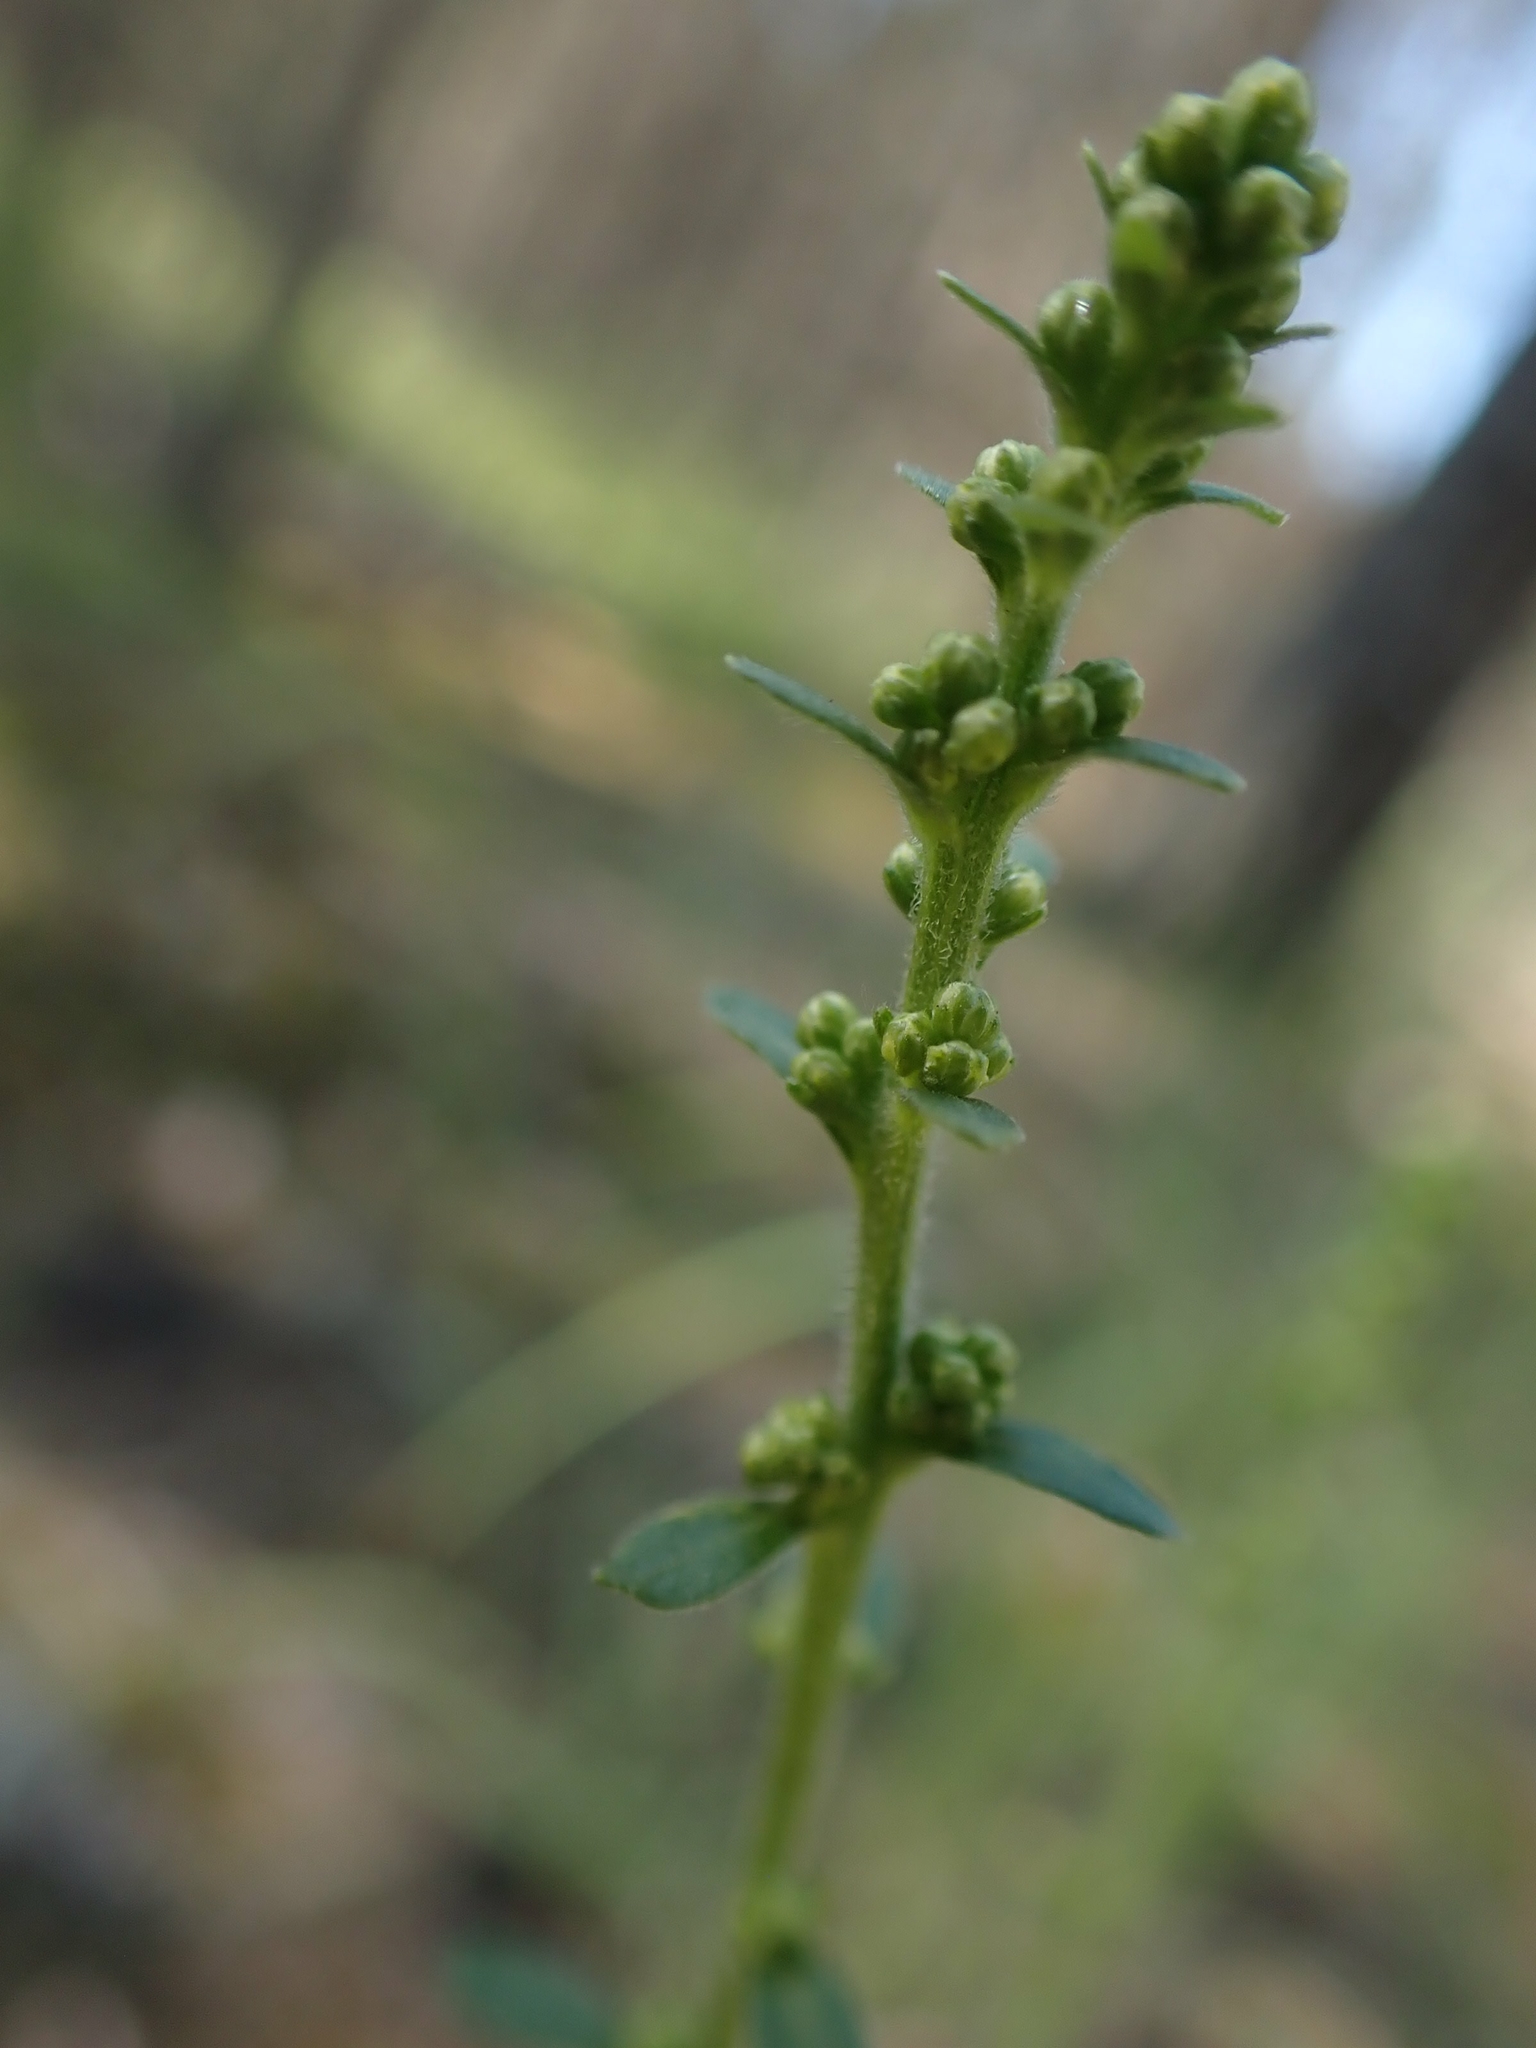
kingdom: Plantae
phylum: Tracheophyta
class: Magnoliopsida
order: Asterales
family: Asteraceae
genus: Solidago
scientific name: Solidago hispida
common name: Hairy goldenrod
